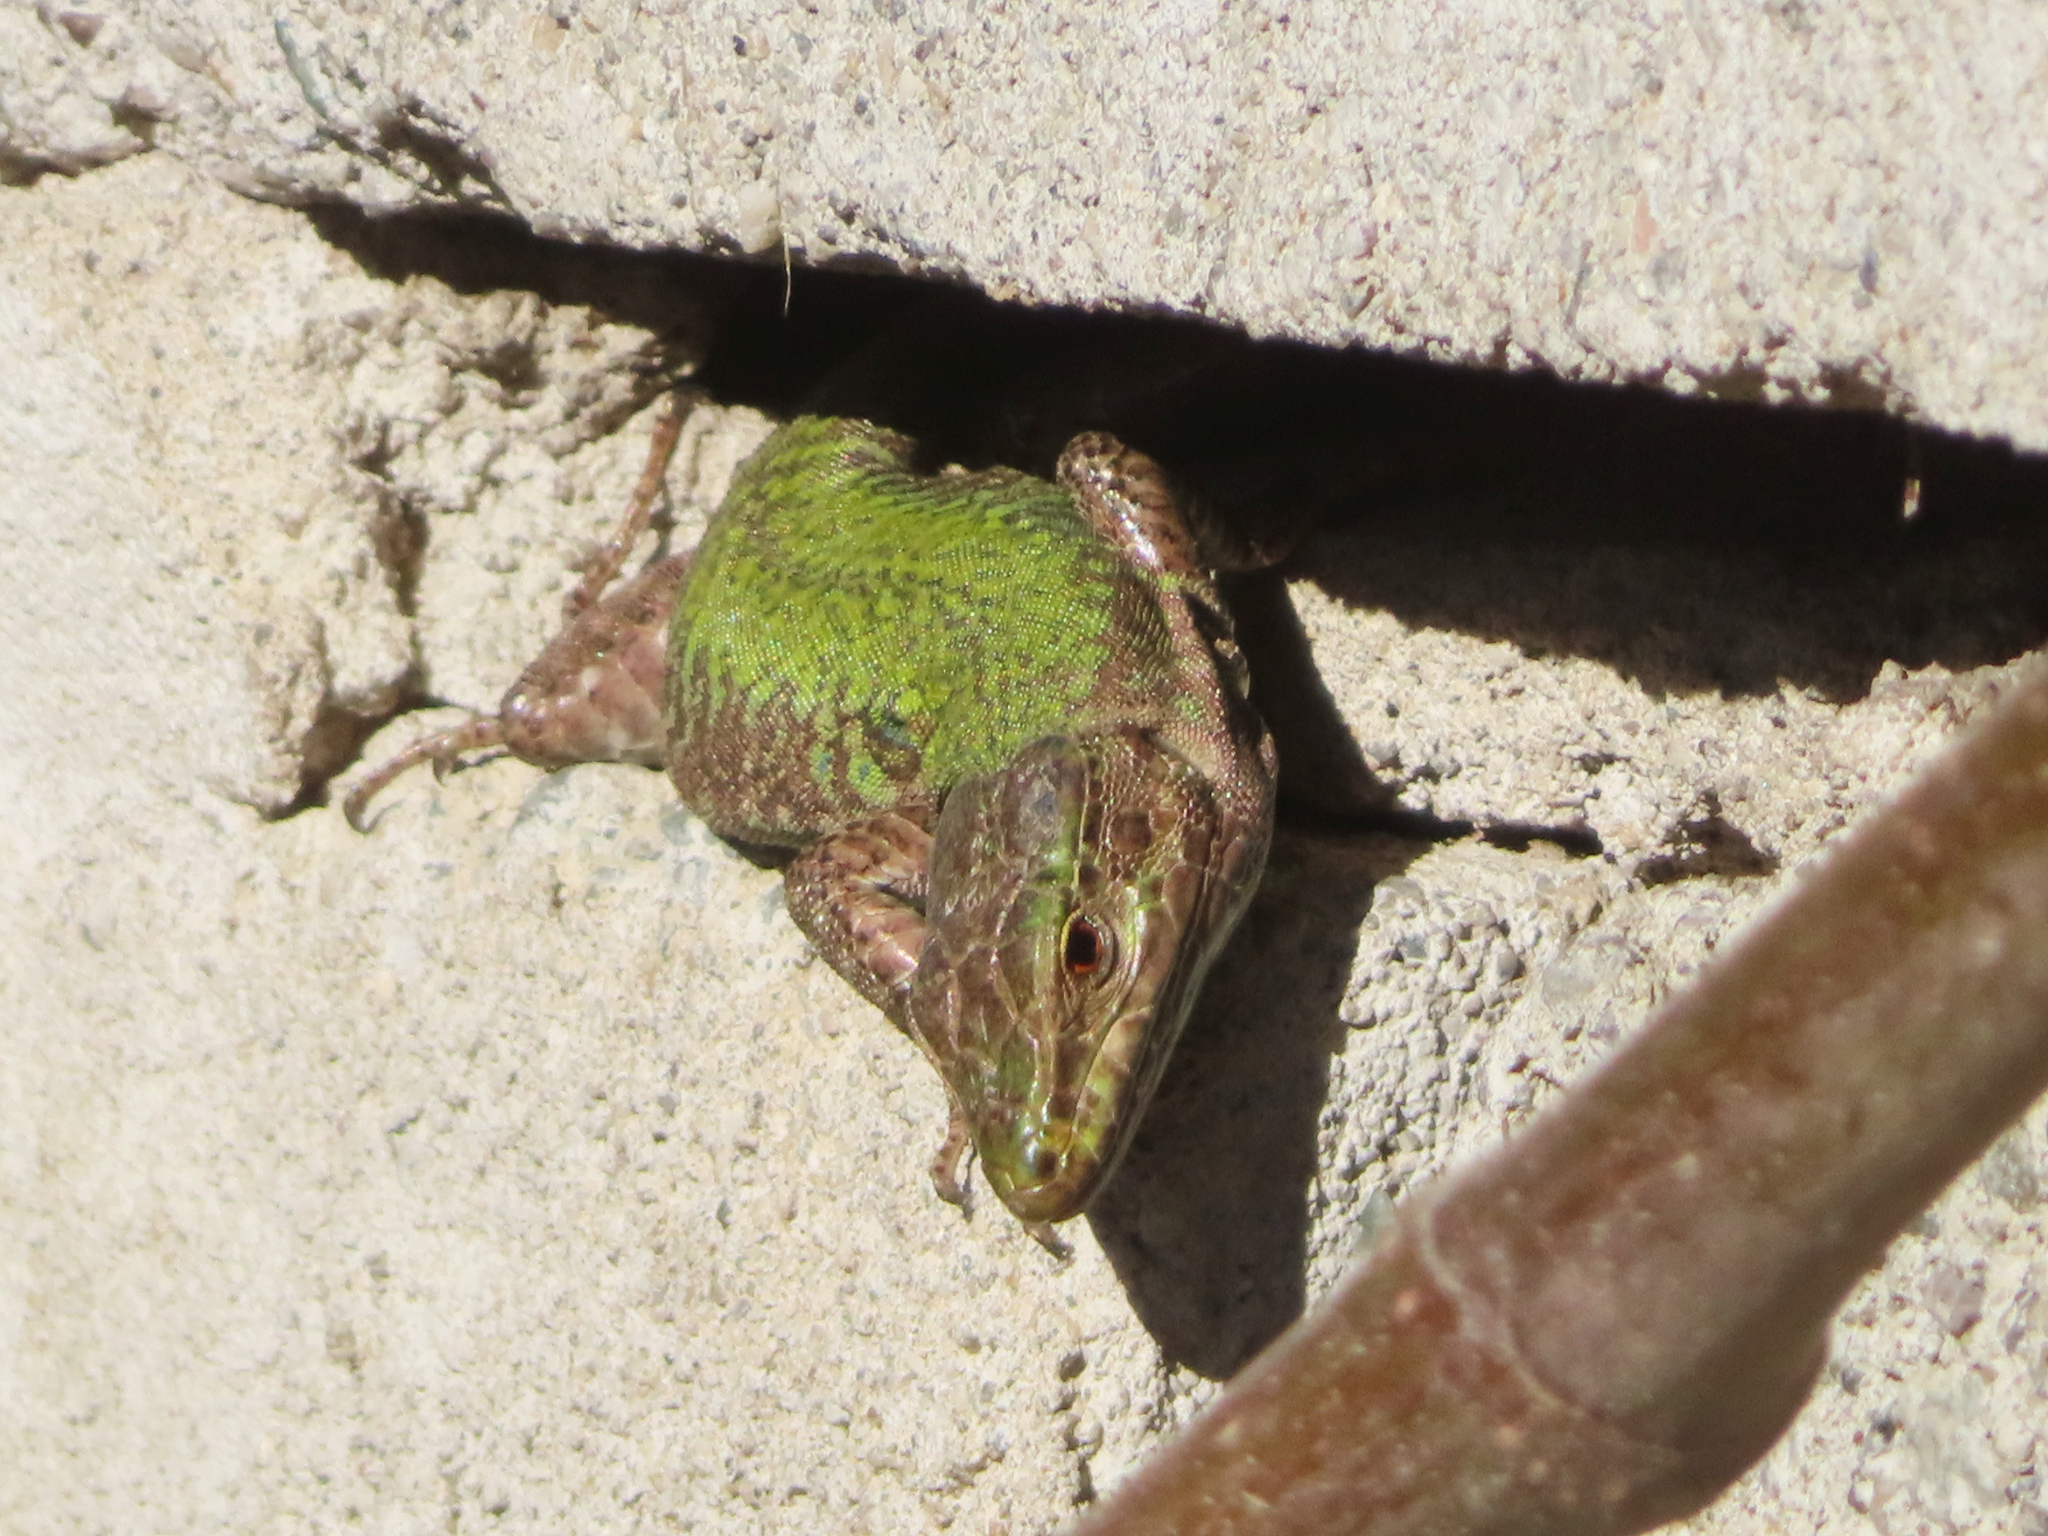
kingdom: Animalia
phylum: Chordata
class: Squamata
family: Lacertidae
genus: Podarcis
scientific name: Podarcis siculus
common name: Italian wall lizard
